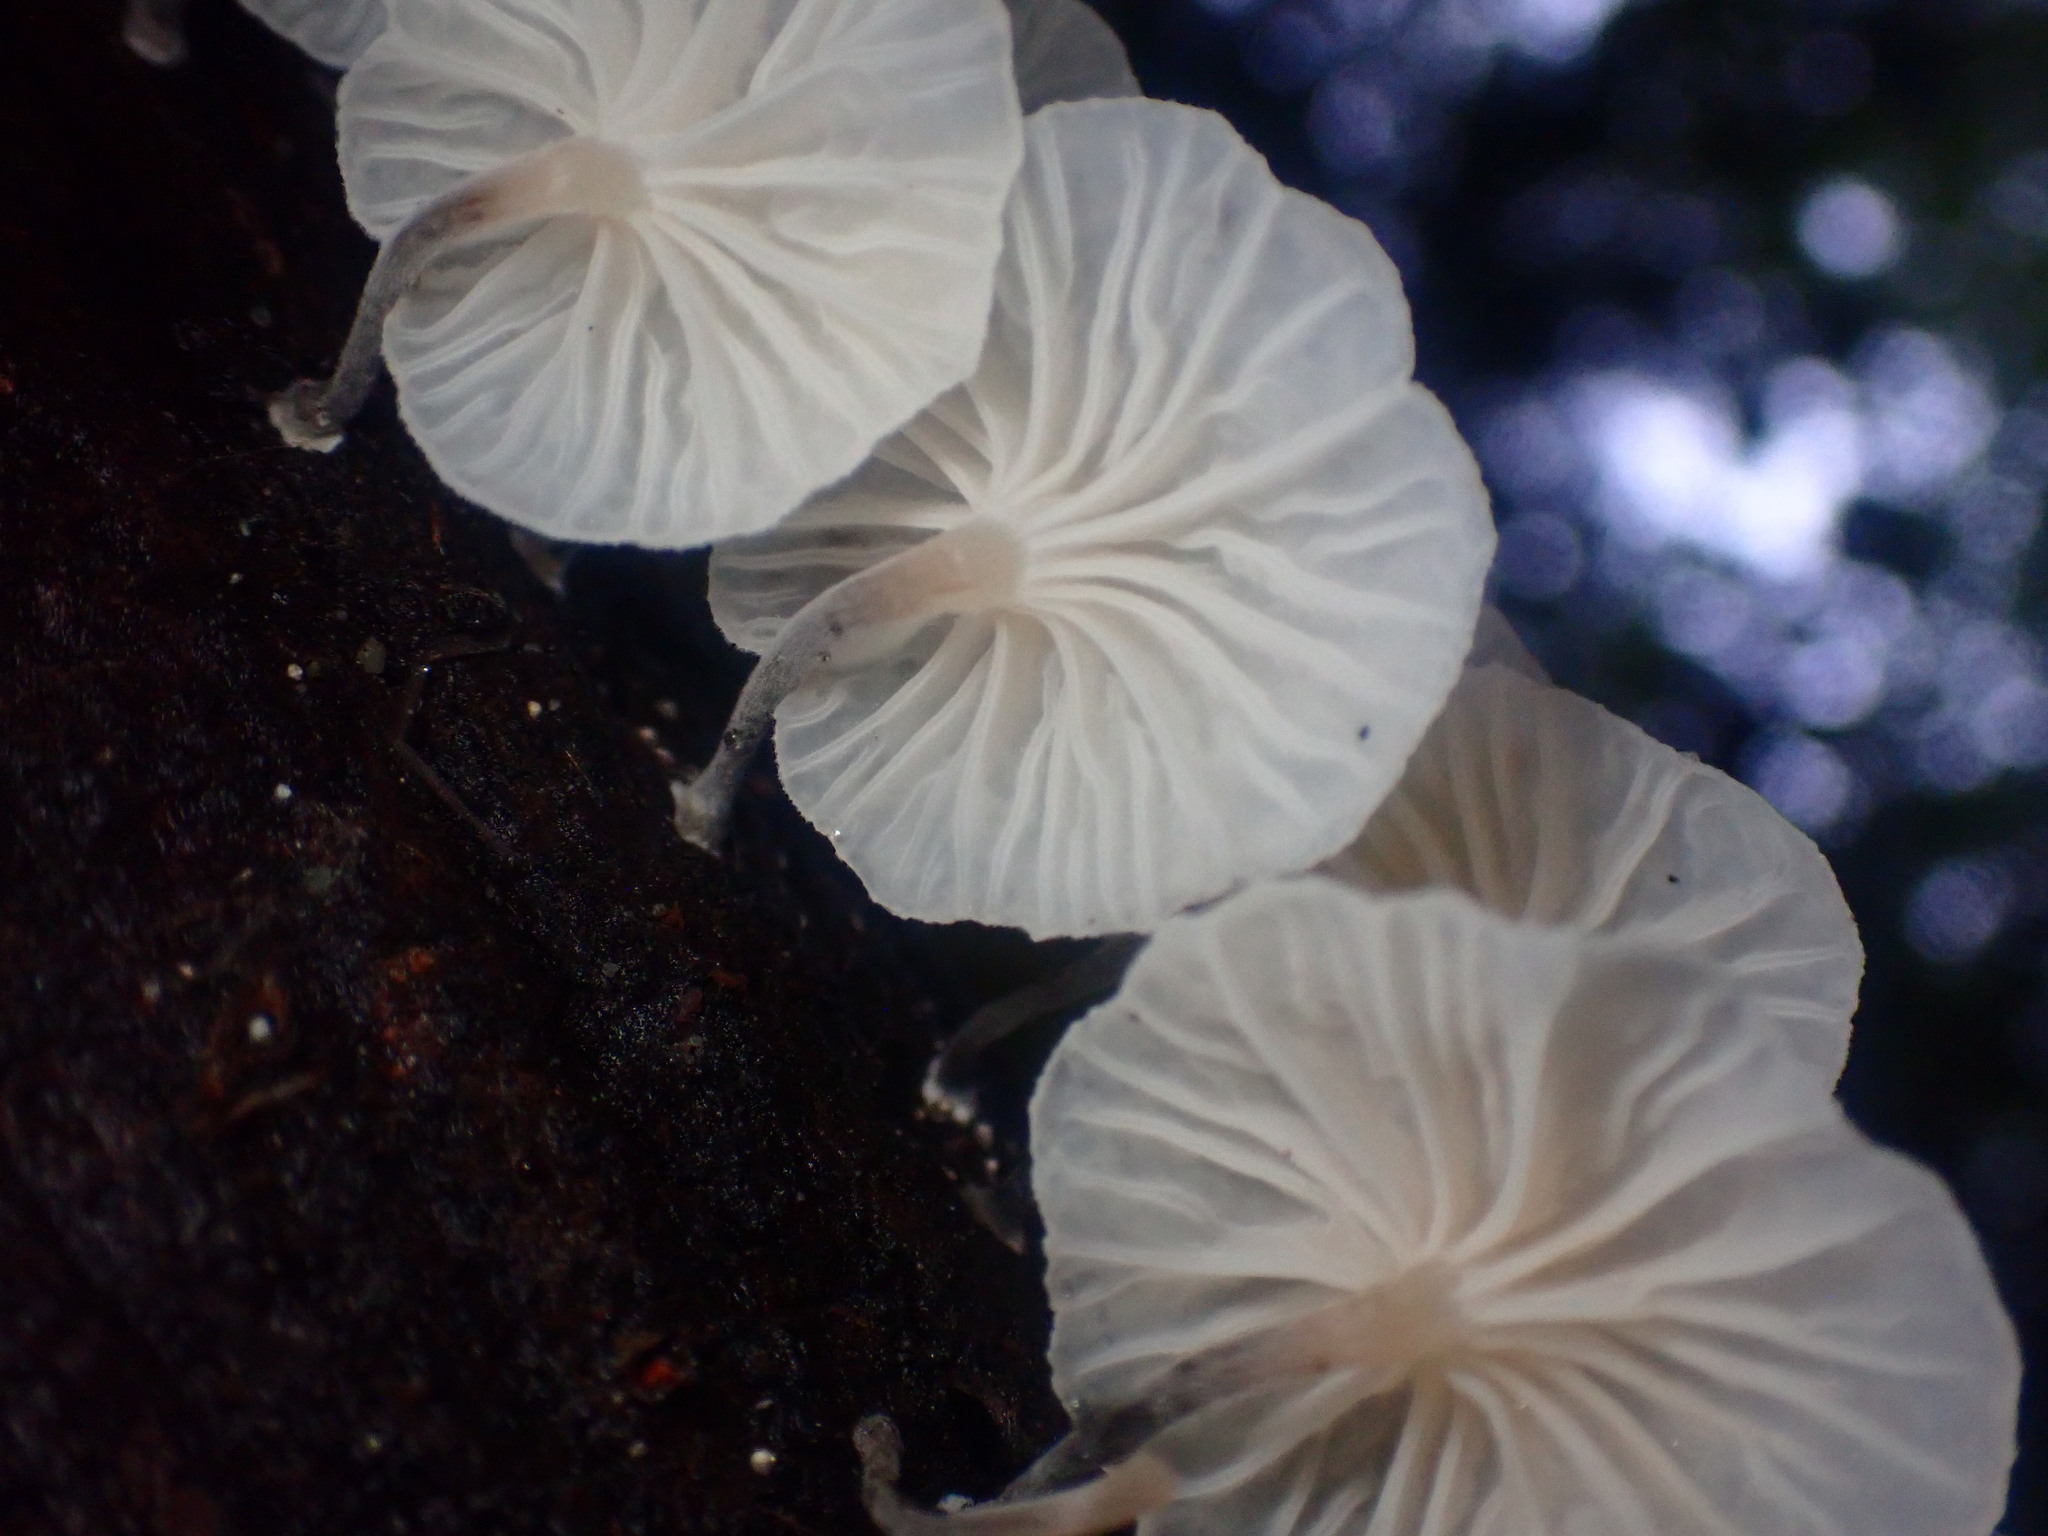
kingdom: Fungi
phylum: Basidiomycota
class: Agaricomycetes
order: Agaricales
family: Omphalotaceae
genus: Marasmiellus
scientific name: Marasmiellus candidus
